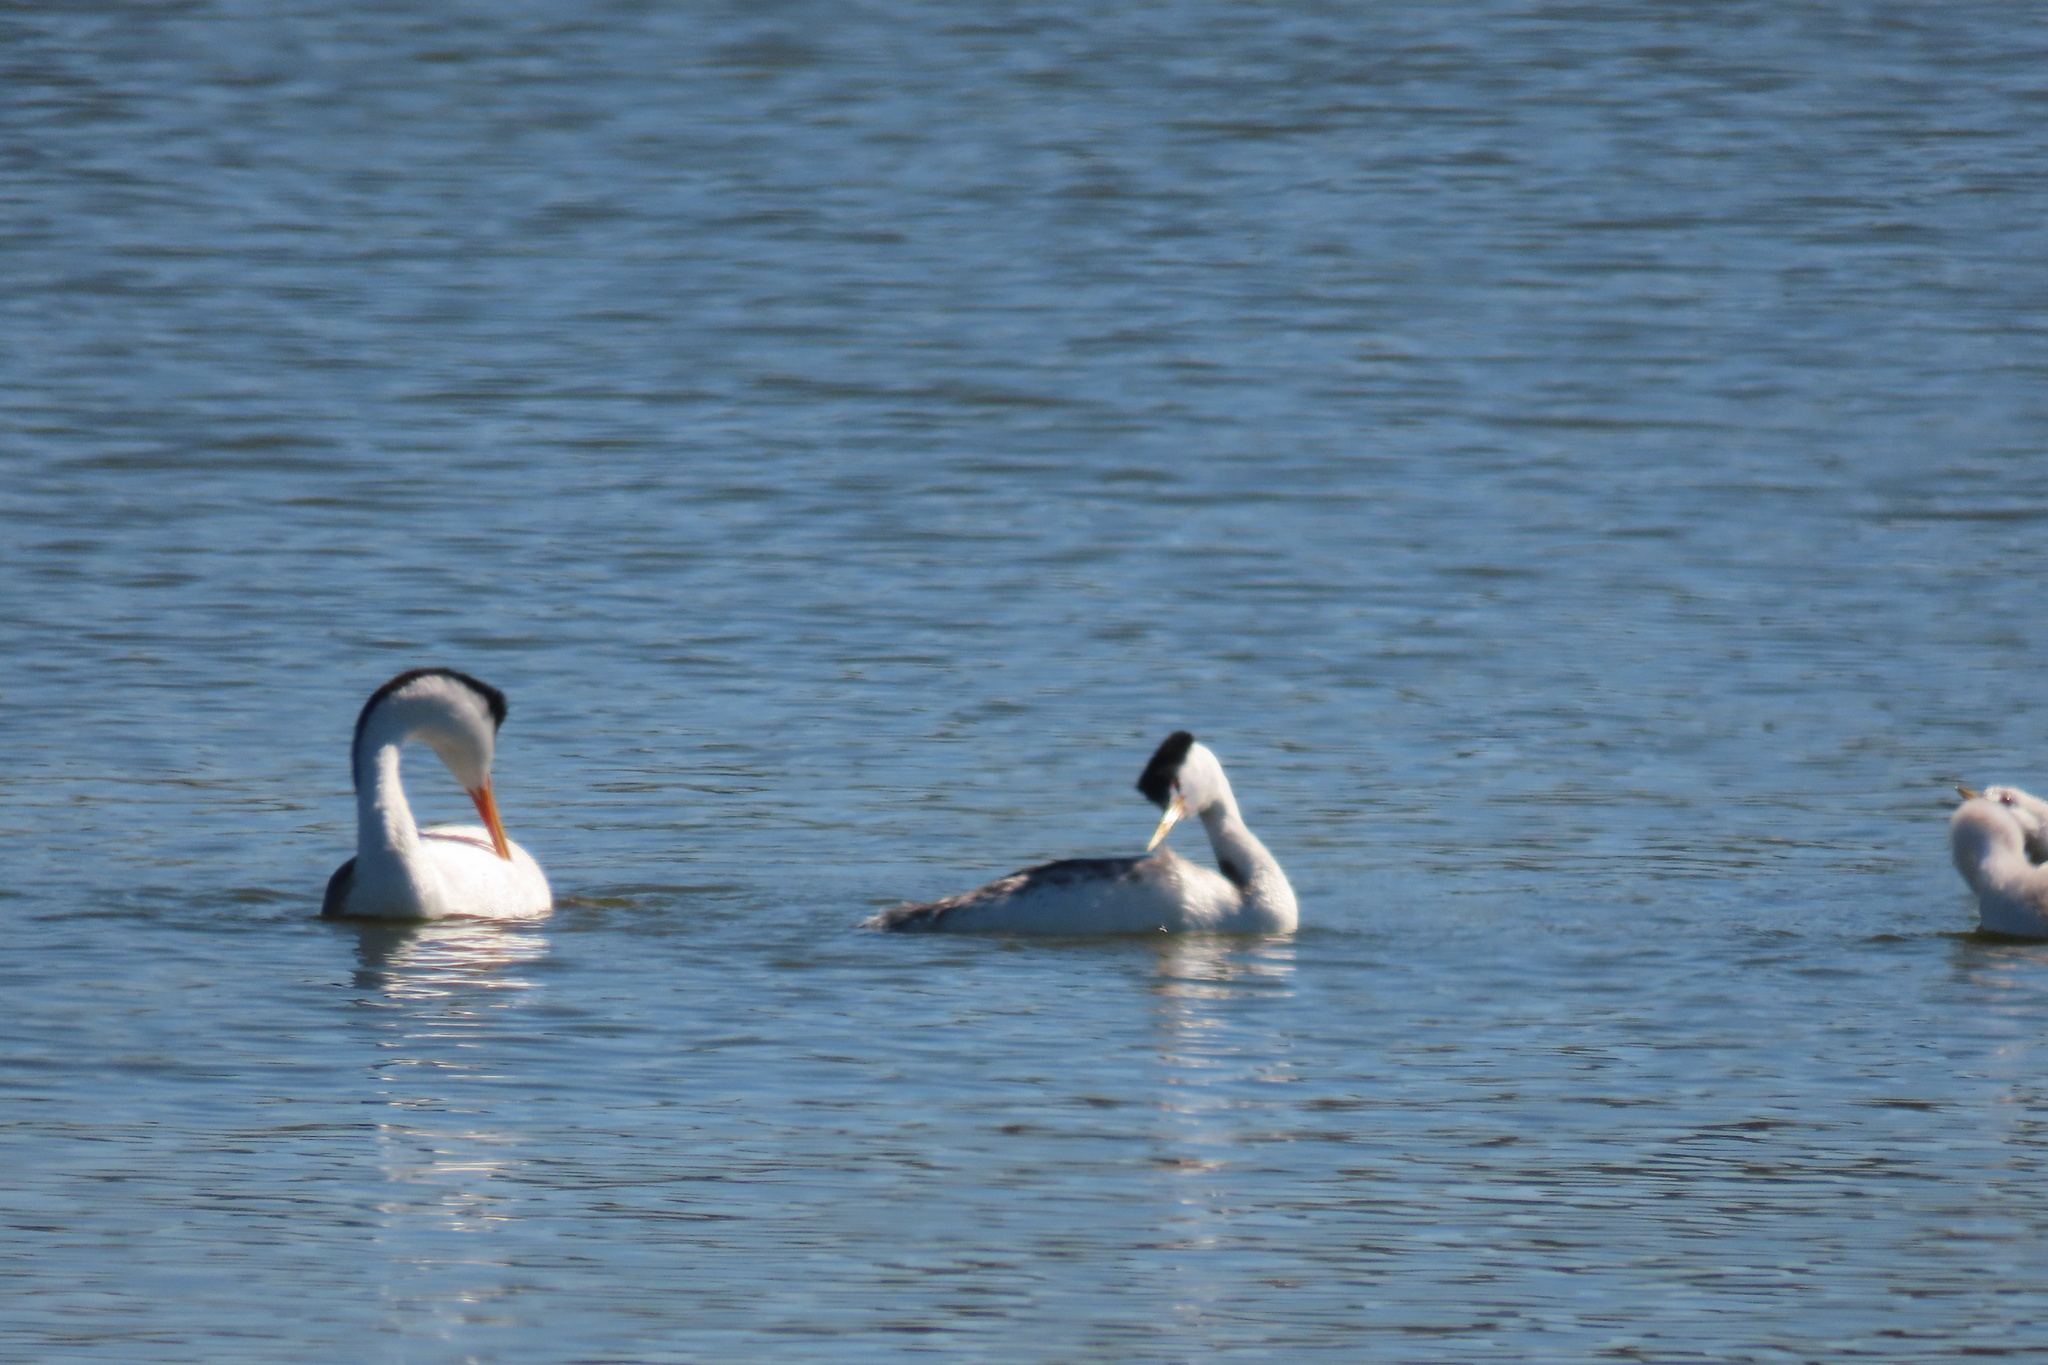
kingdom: Animalia
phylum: Chordata
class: Aves
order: Podicipediformes
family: Podicipedidae
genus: Aechmophorus
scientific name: Aechmophorus clarkii
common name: Clark's grebe
